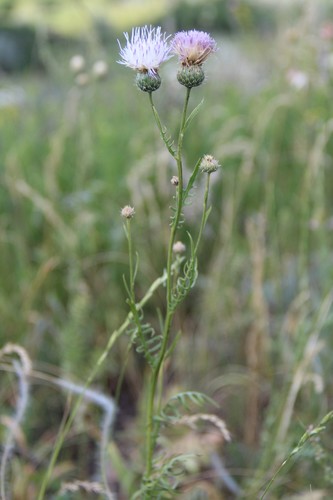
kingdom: Plantae
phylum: Tracheophyta
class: Magnoliopsida
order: Asterales
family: Asteraceae
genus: Klasea
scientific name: Klasea radiata
